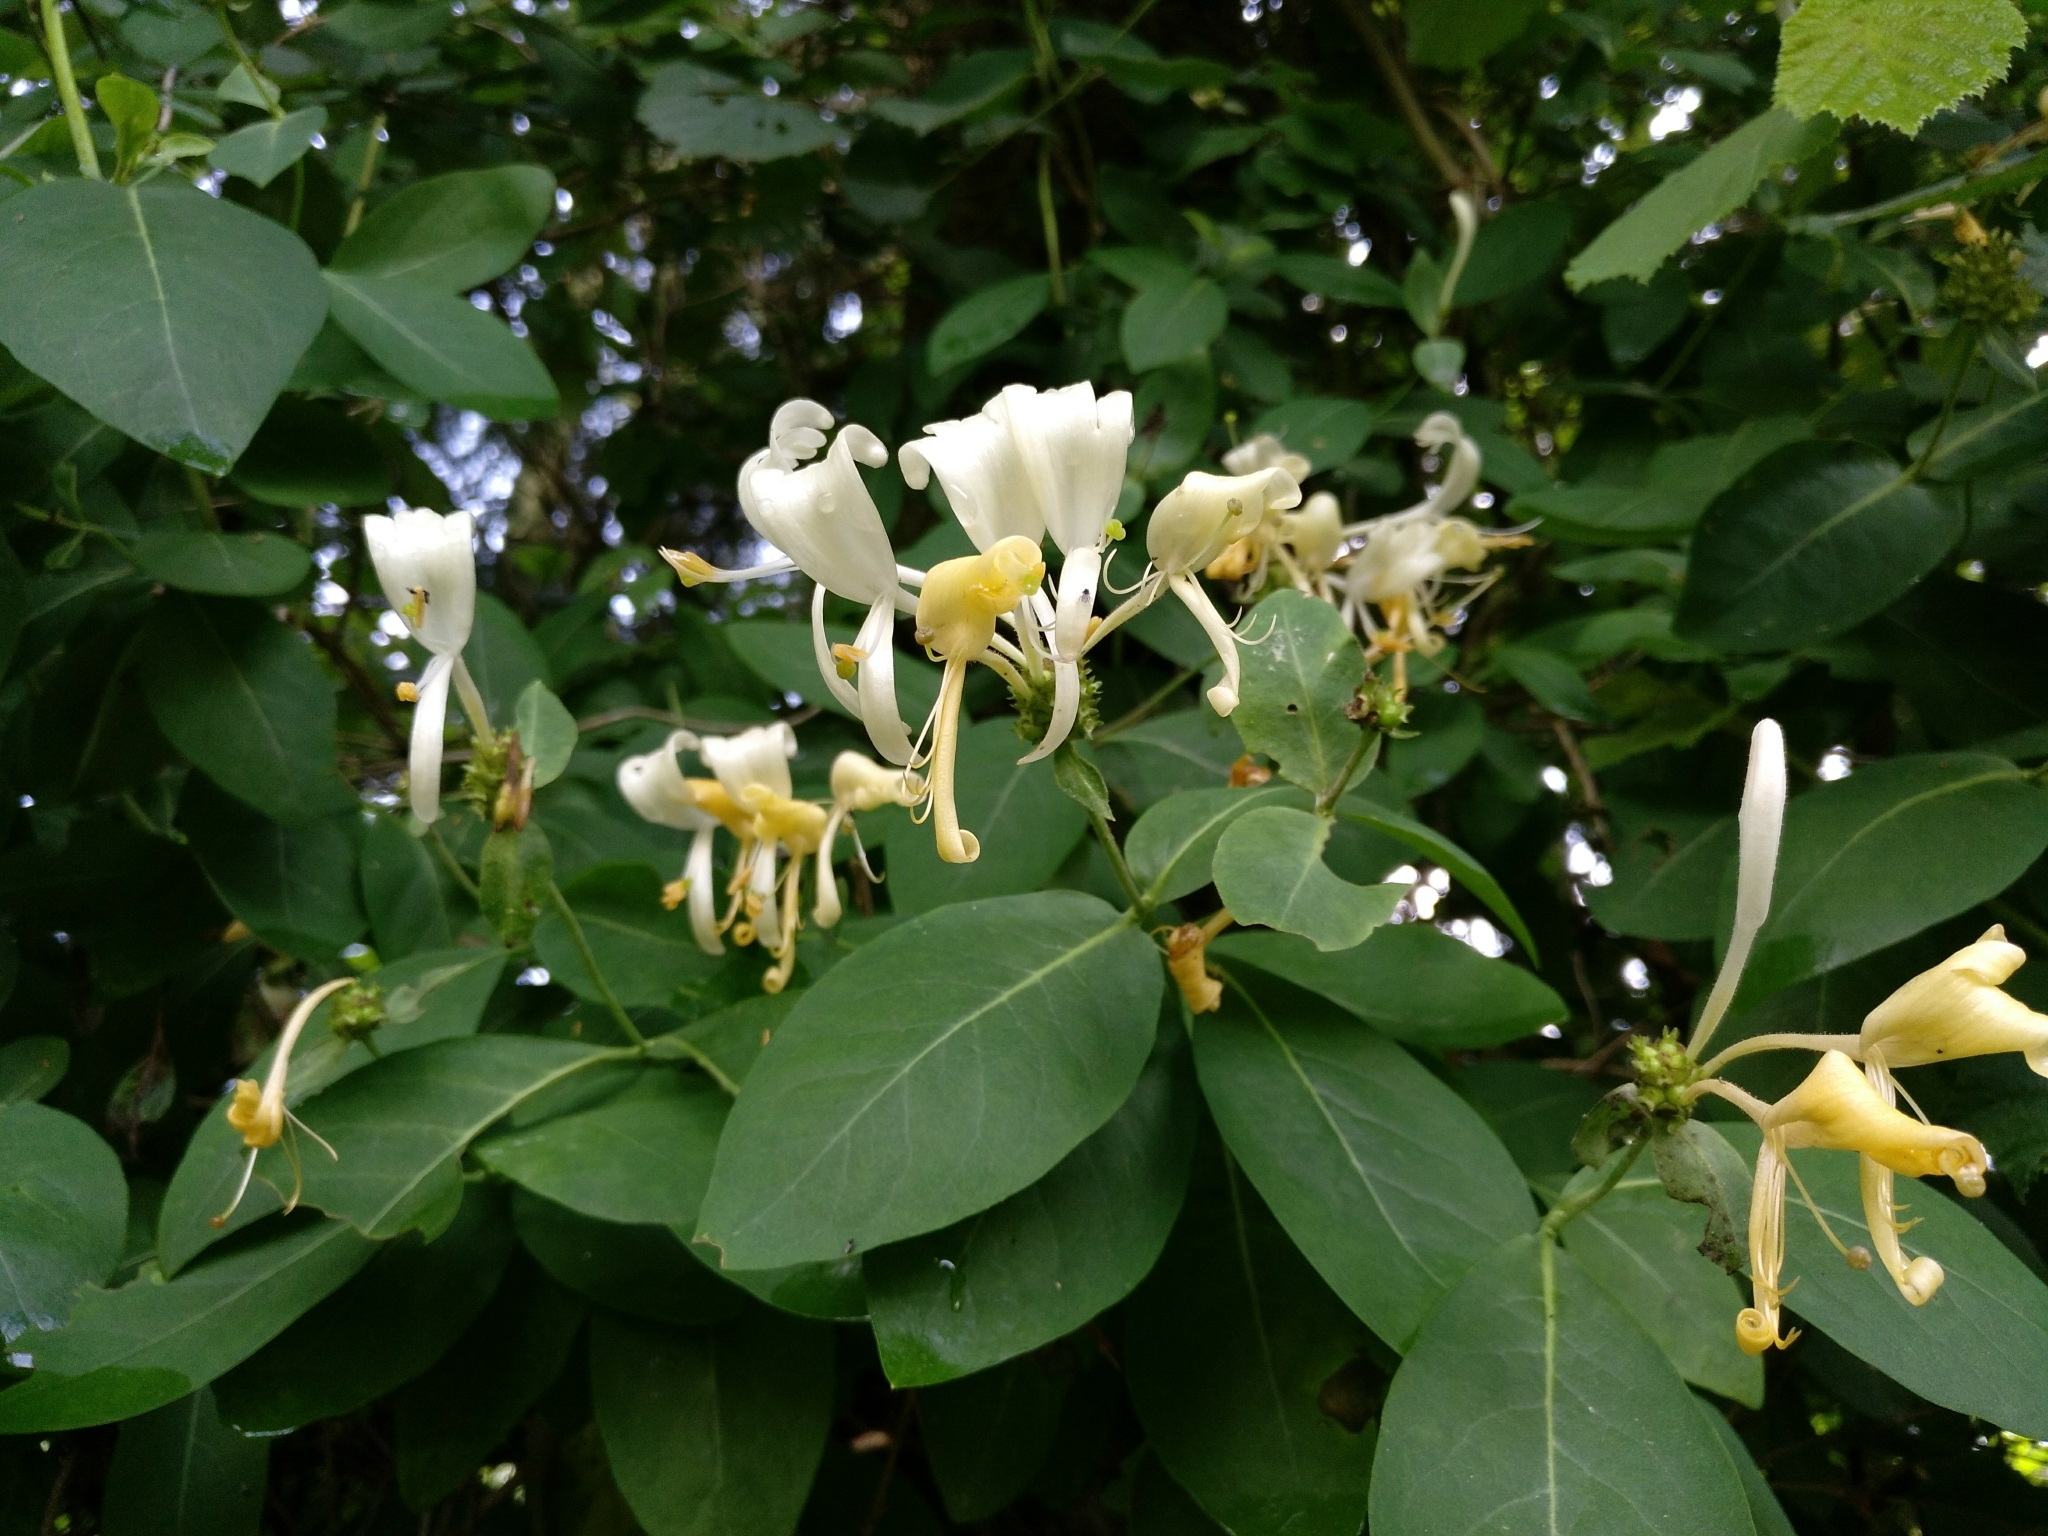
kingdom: Plantae
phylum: Tracheophyta
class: Magnoliopsida
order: Dipsacales
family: Caprifoliaceae
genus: Lonicera
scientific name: Lonicera periclymenum
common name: European honeysuckle
